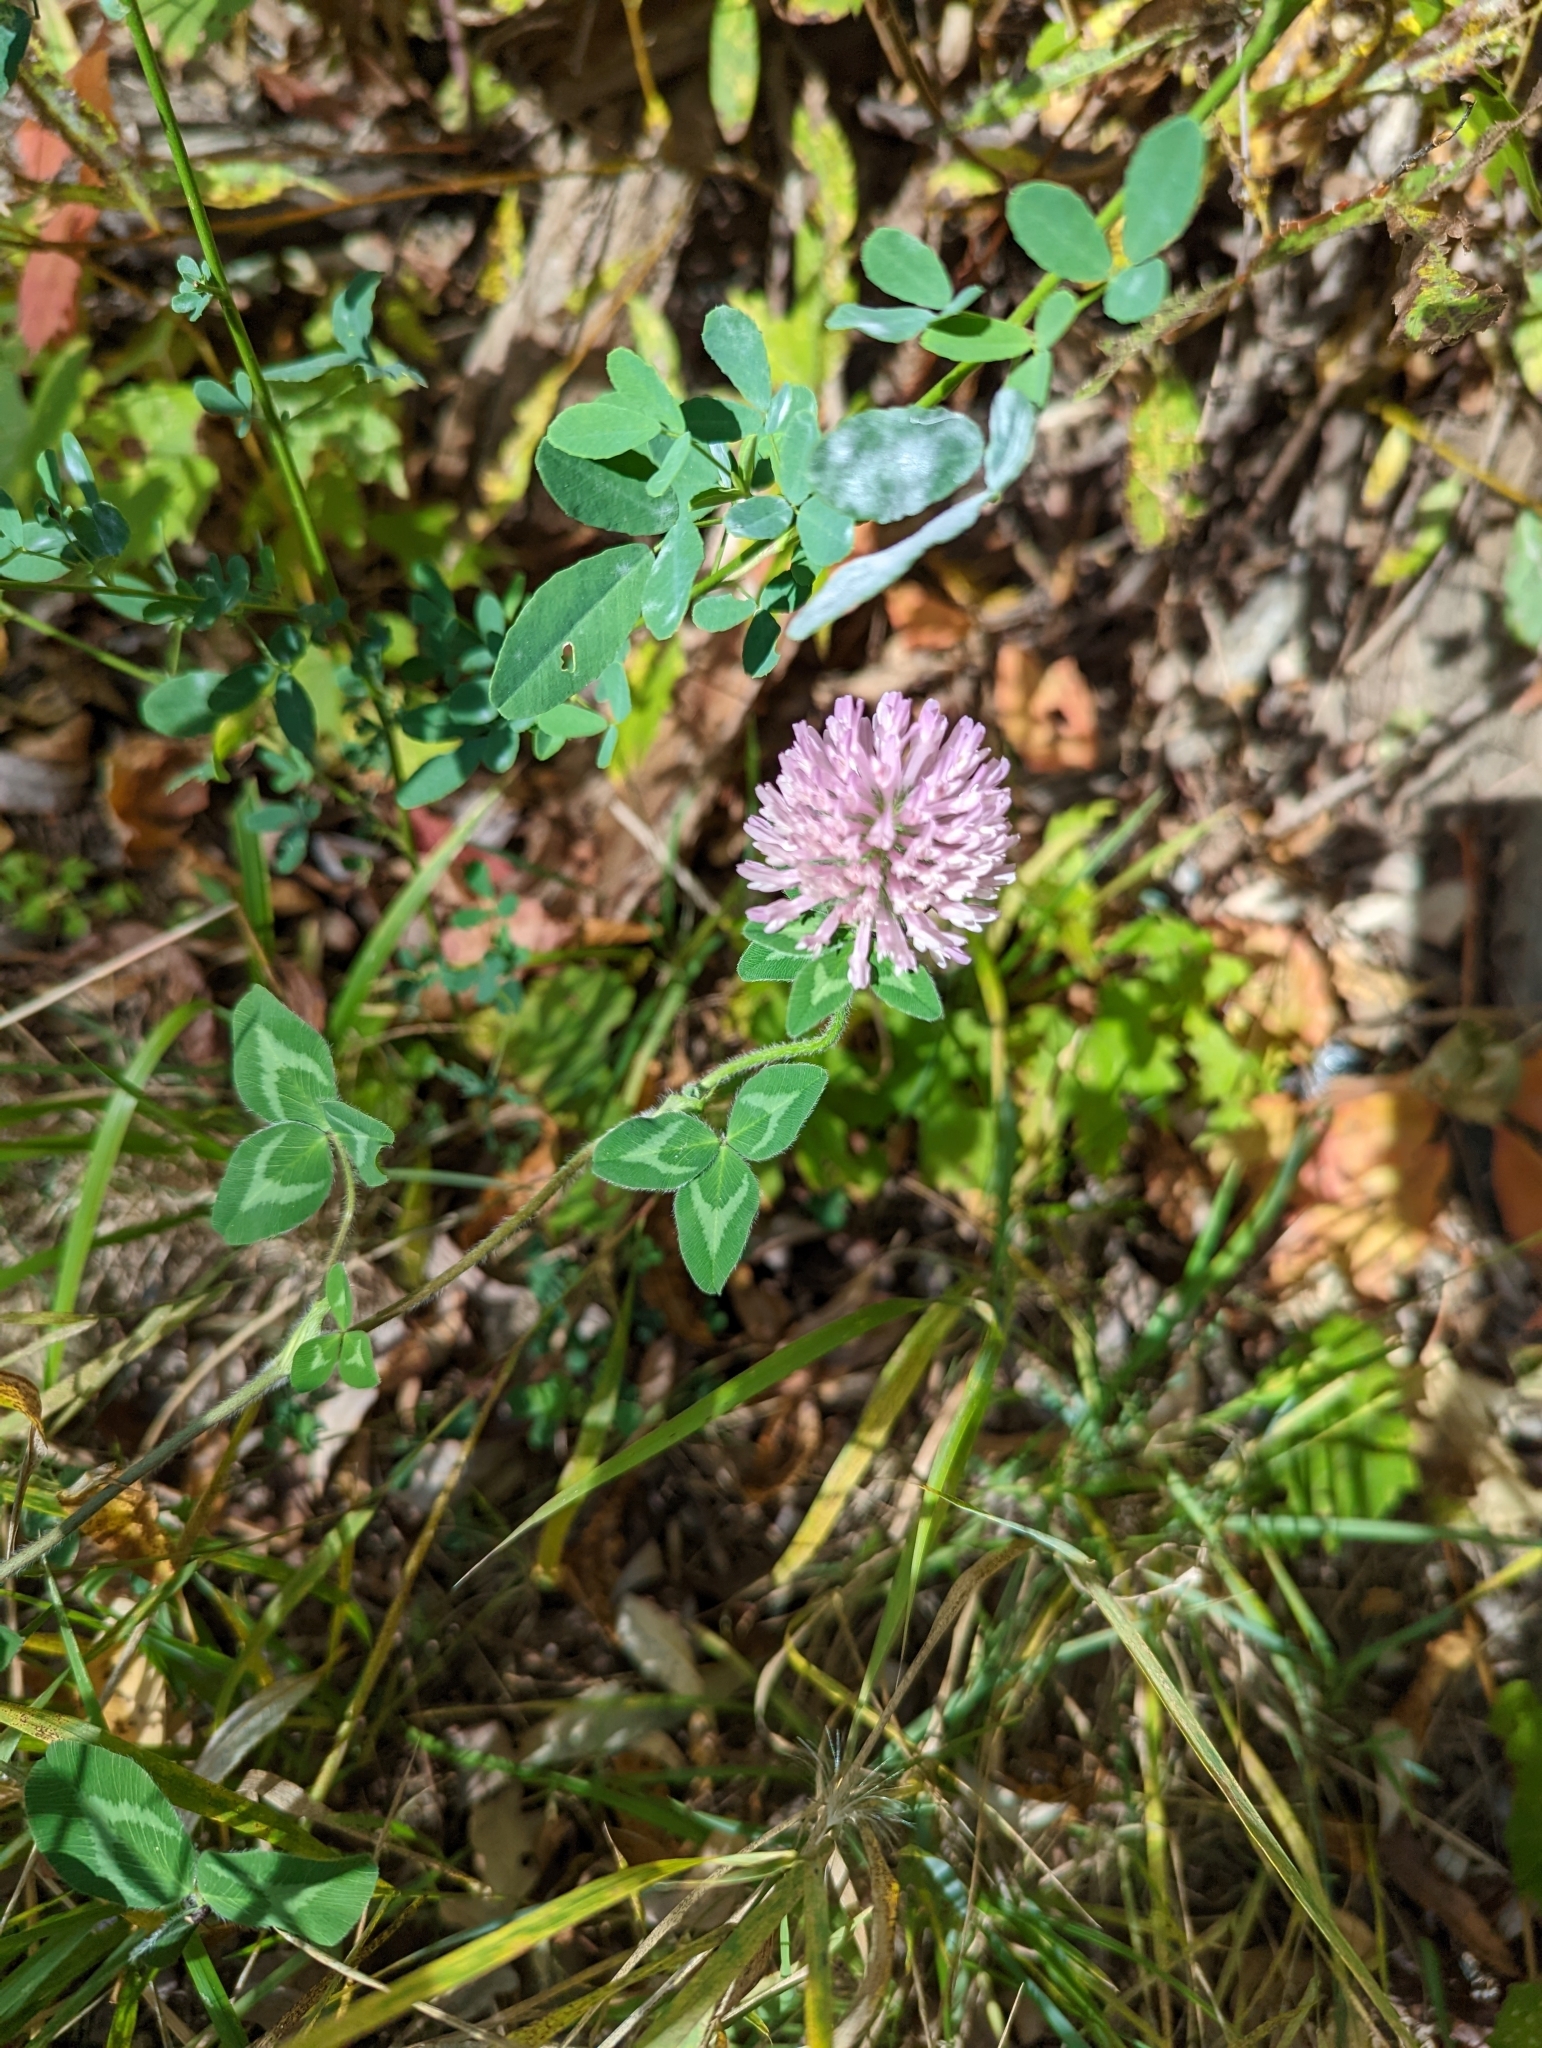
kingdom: Plantae
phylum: Tracheophyta
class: Magnoliopsida
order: Fabales
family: Fabaceae
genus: Trifolium
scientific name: Trifolium pratense
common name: Red clover
